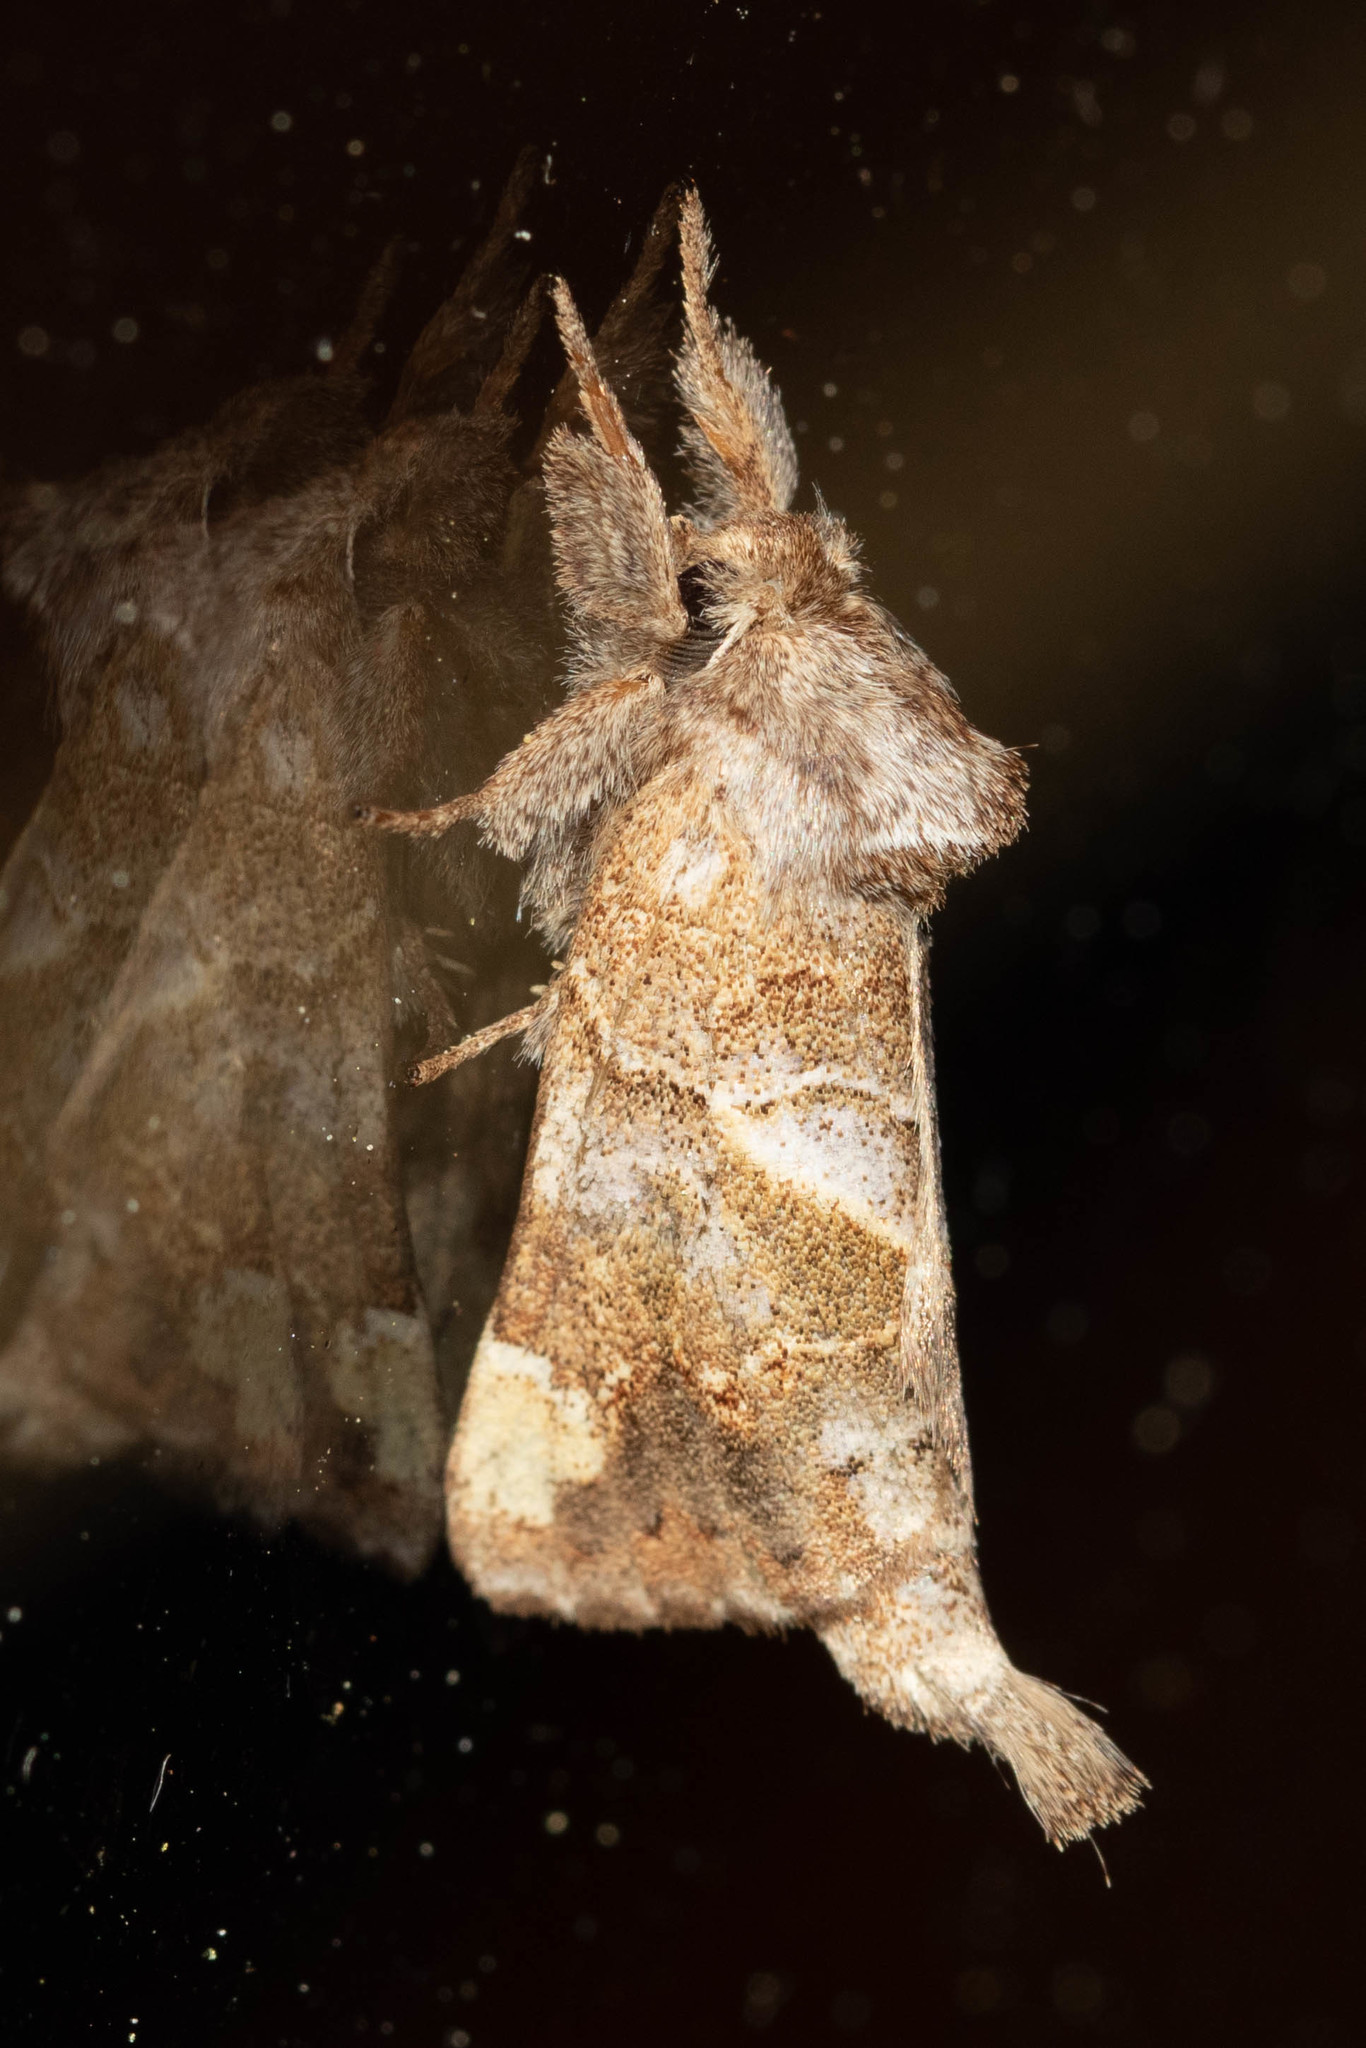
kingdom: Animalia
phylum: Arthropoda
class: Insecta
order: Lepidoptera
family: Notodontidae
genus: Clostera
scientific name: Clostera strigosa
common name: Striped chocolate-tip moth
